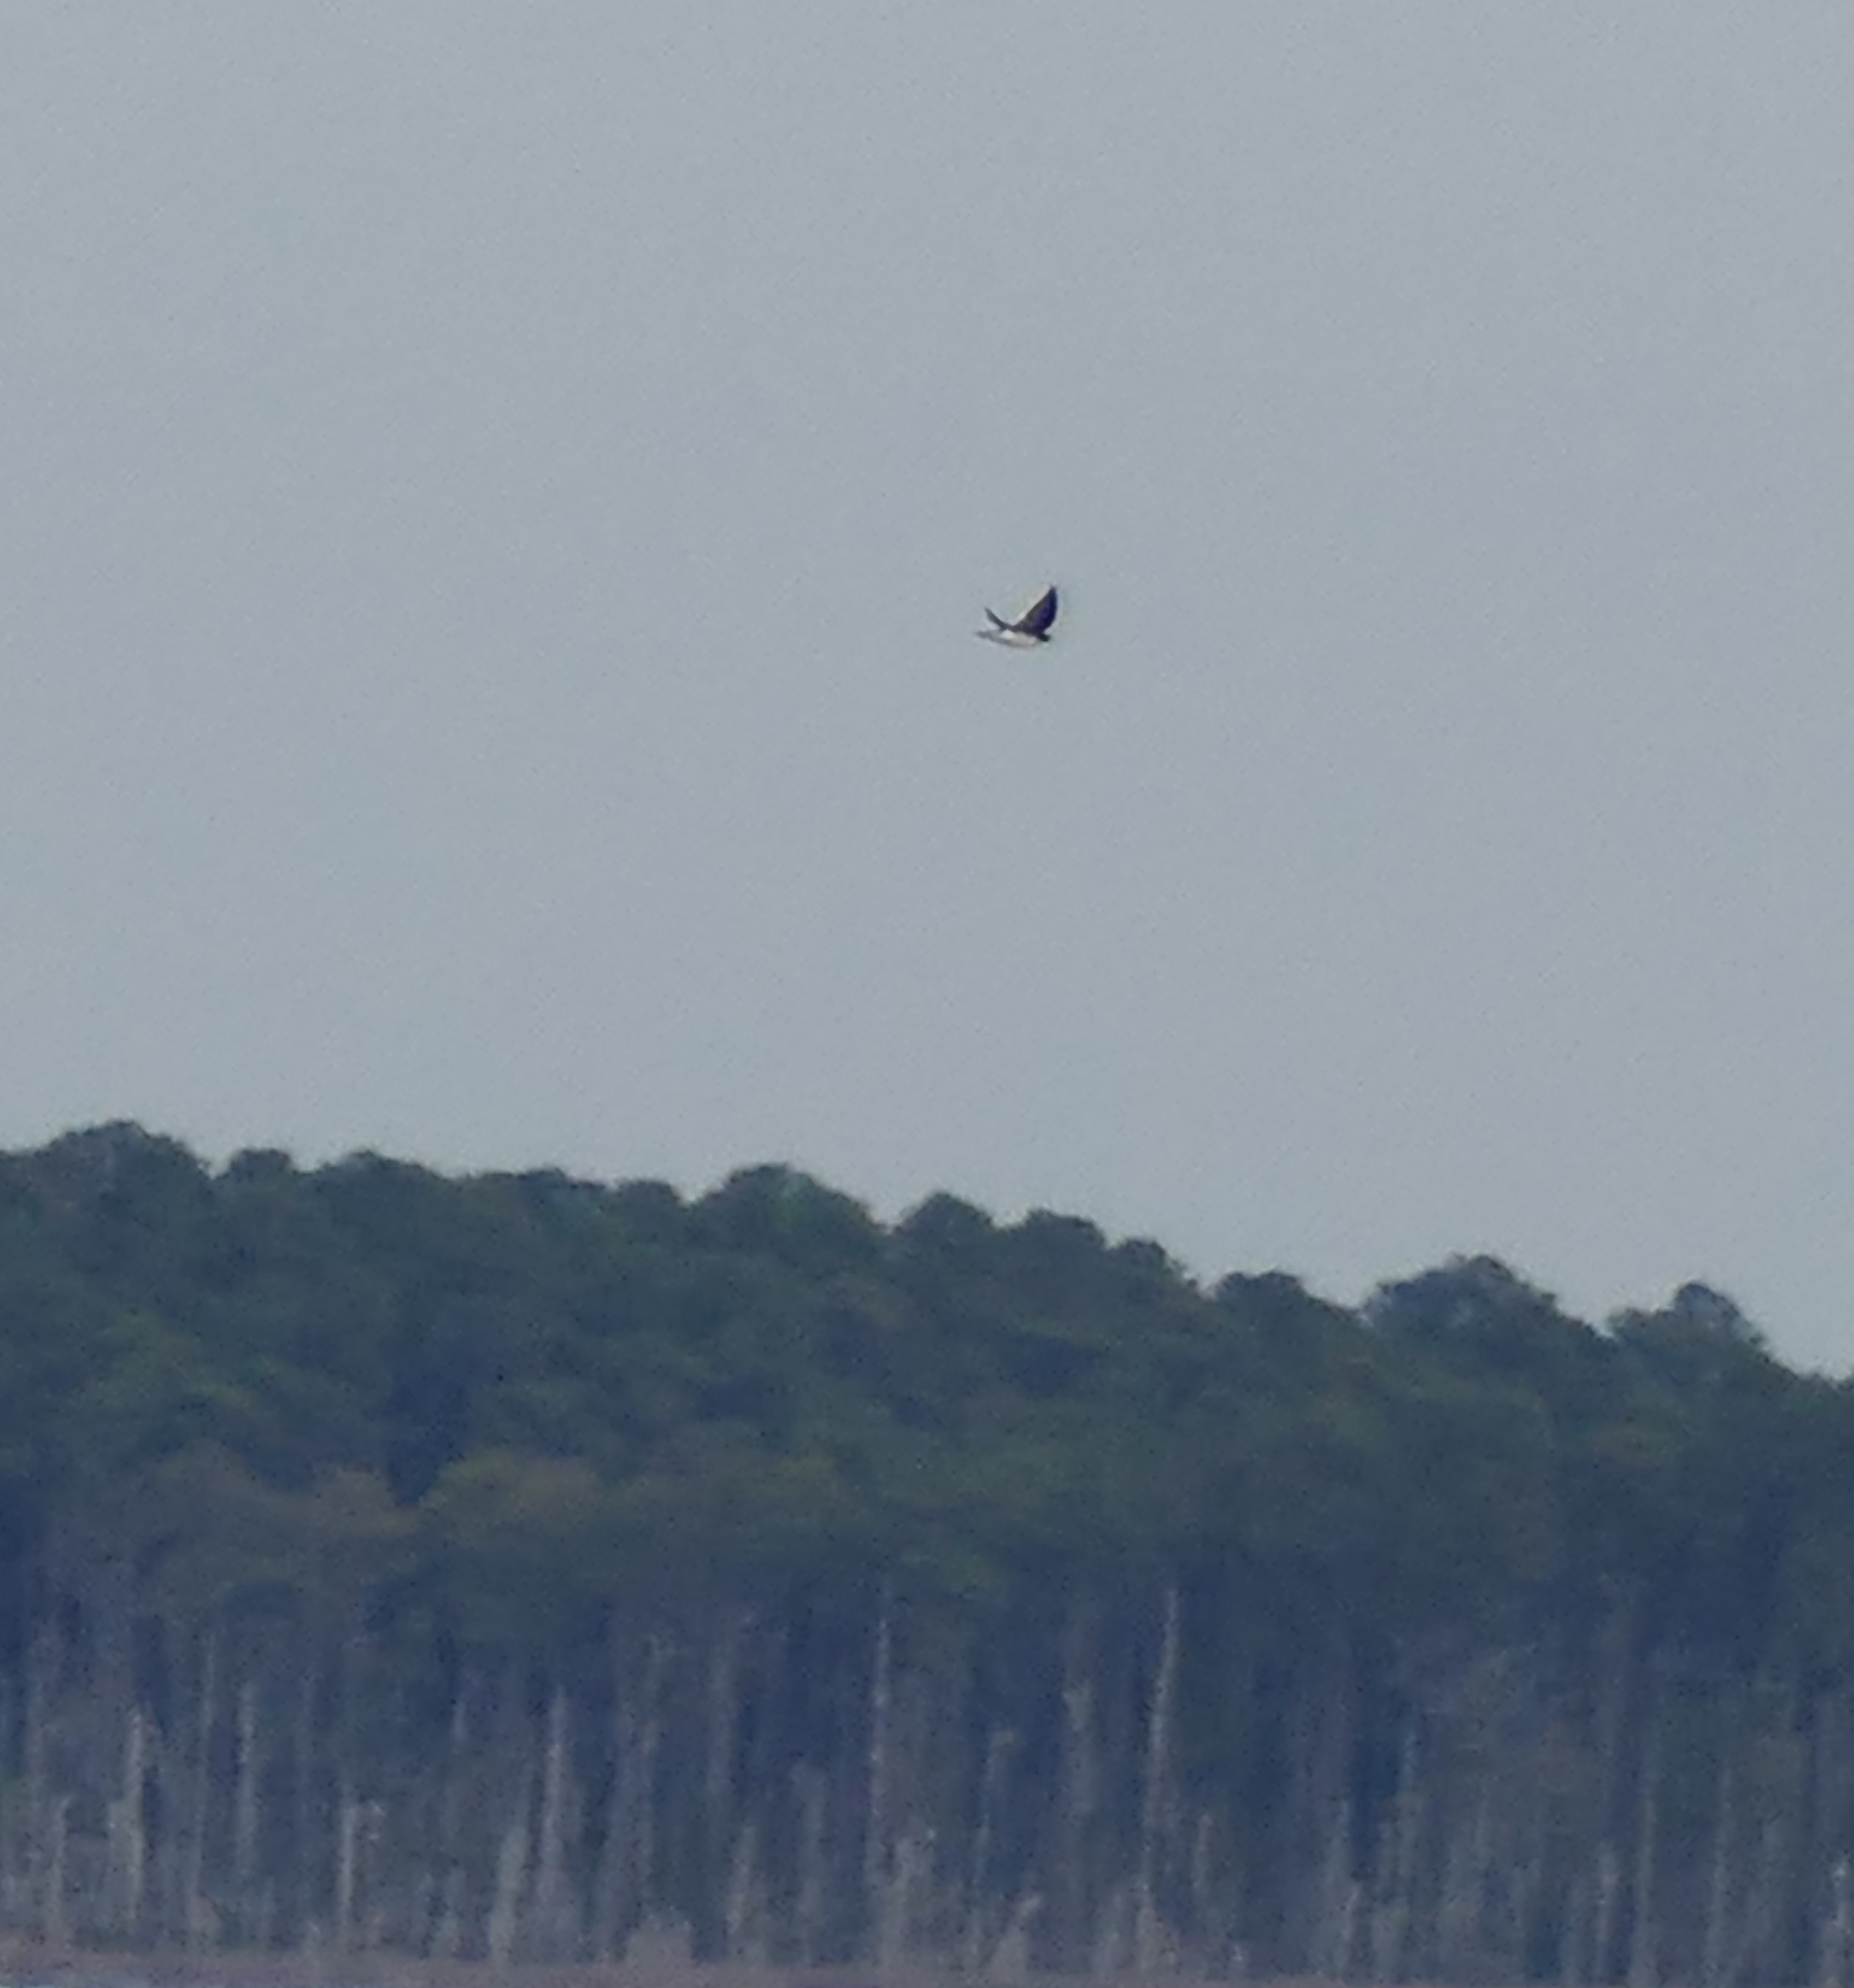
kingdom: Animalia
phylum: Chordata
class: Aves
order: Passeriformes
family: Hirundinidae
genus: Tachycineta
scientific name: Tachycineta bicolor
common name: Tree swallow
